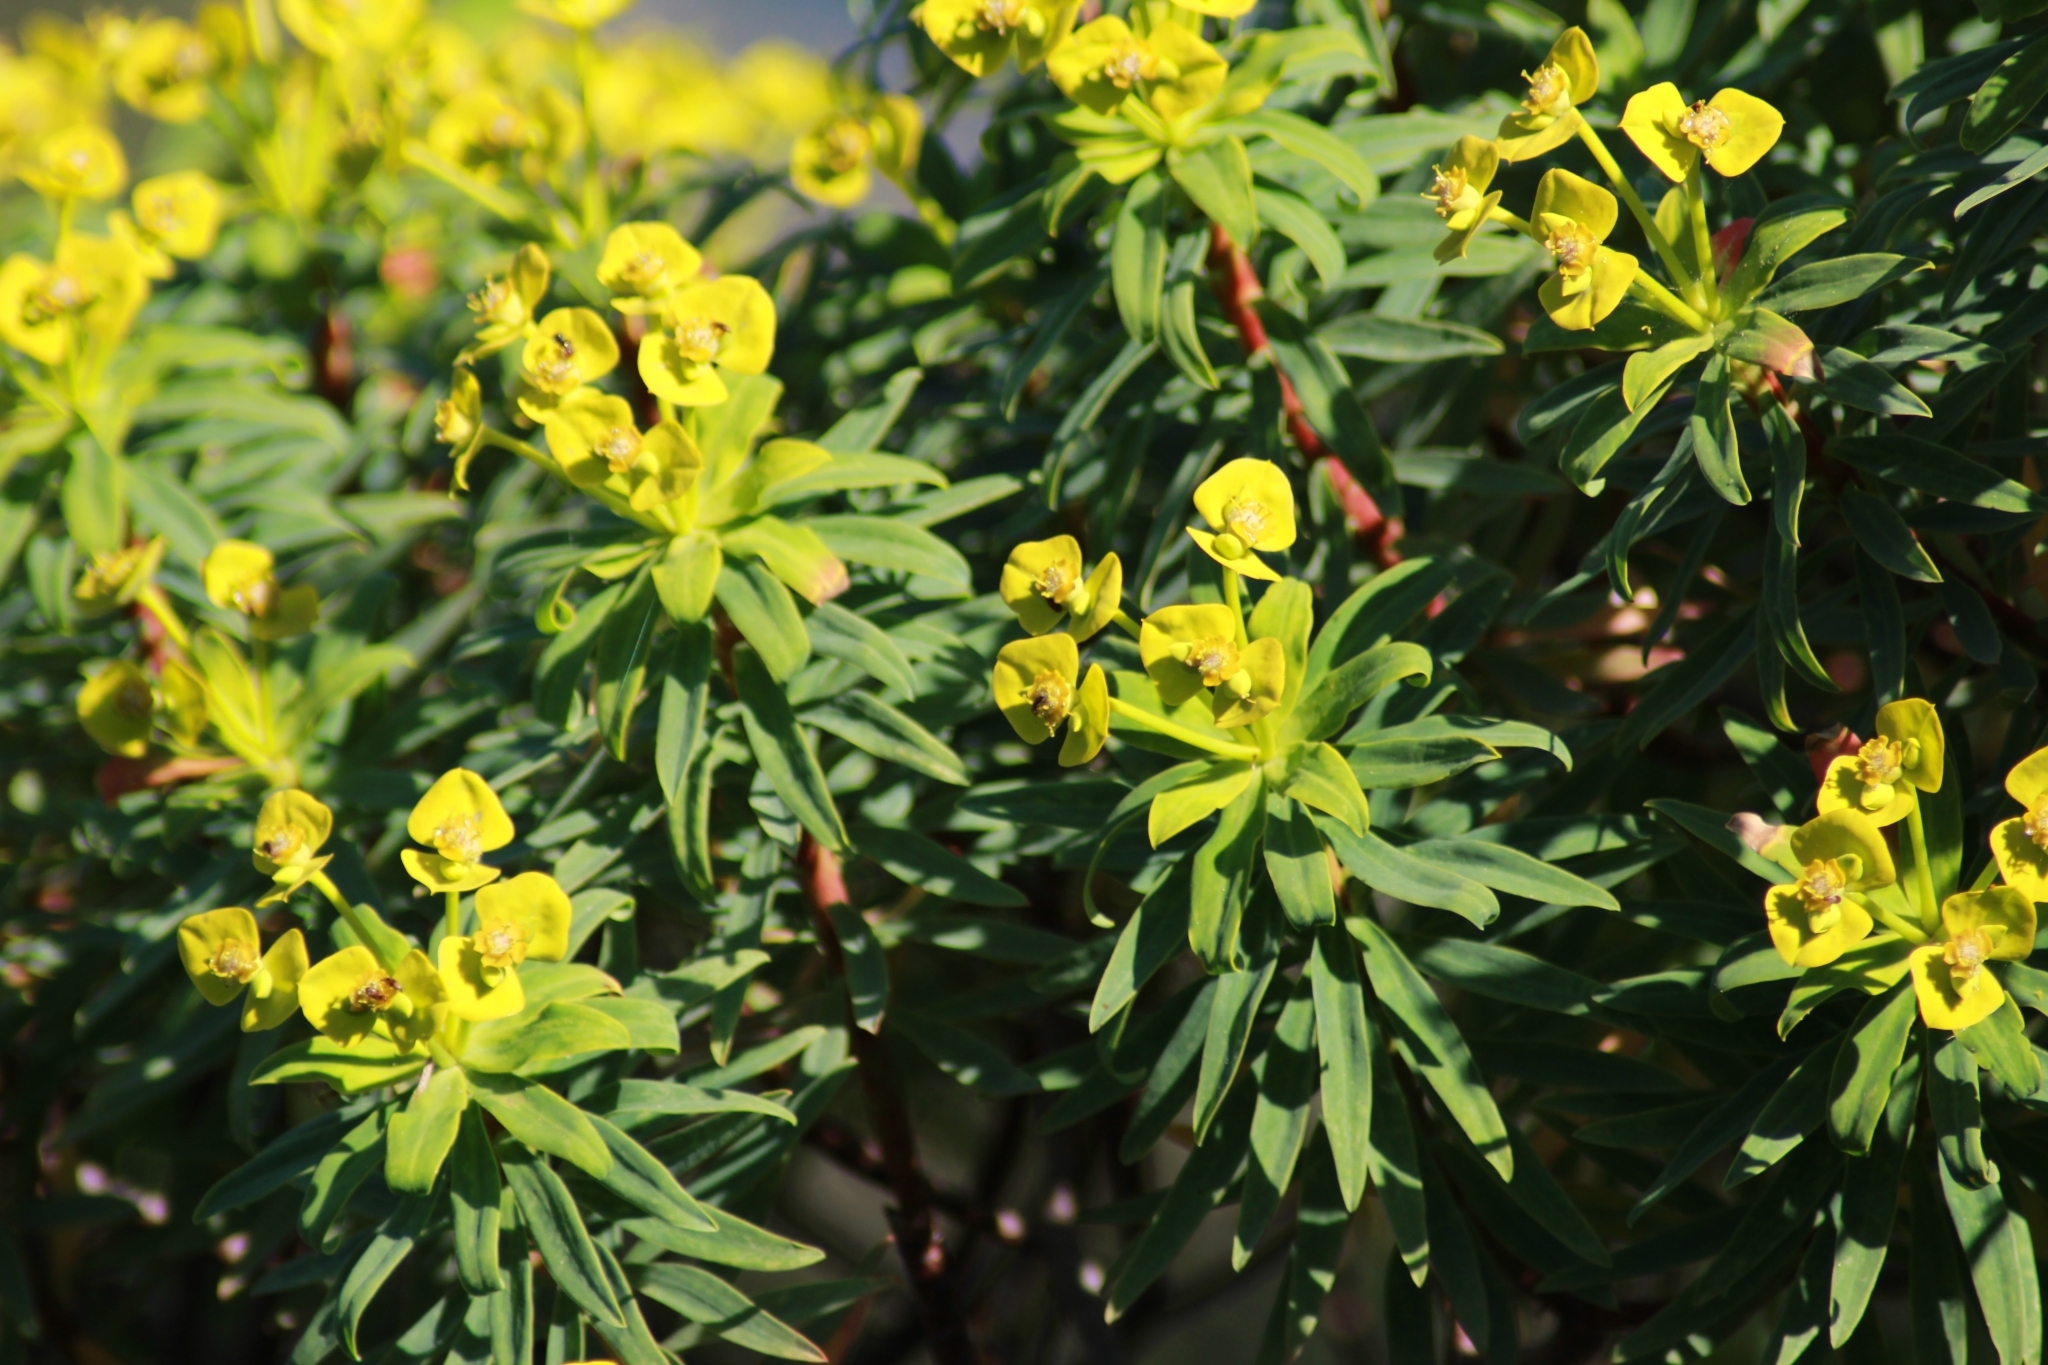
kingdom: Plantae
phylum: Tracheophyta
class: Magnoliopsida
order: Malpighiales
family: Euphorbiaceae
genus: Euphorbia
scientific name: Euphorbia dendroides
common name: Tree spurge
